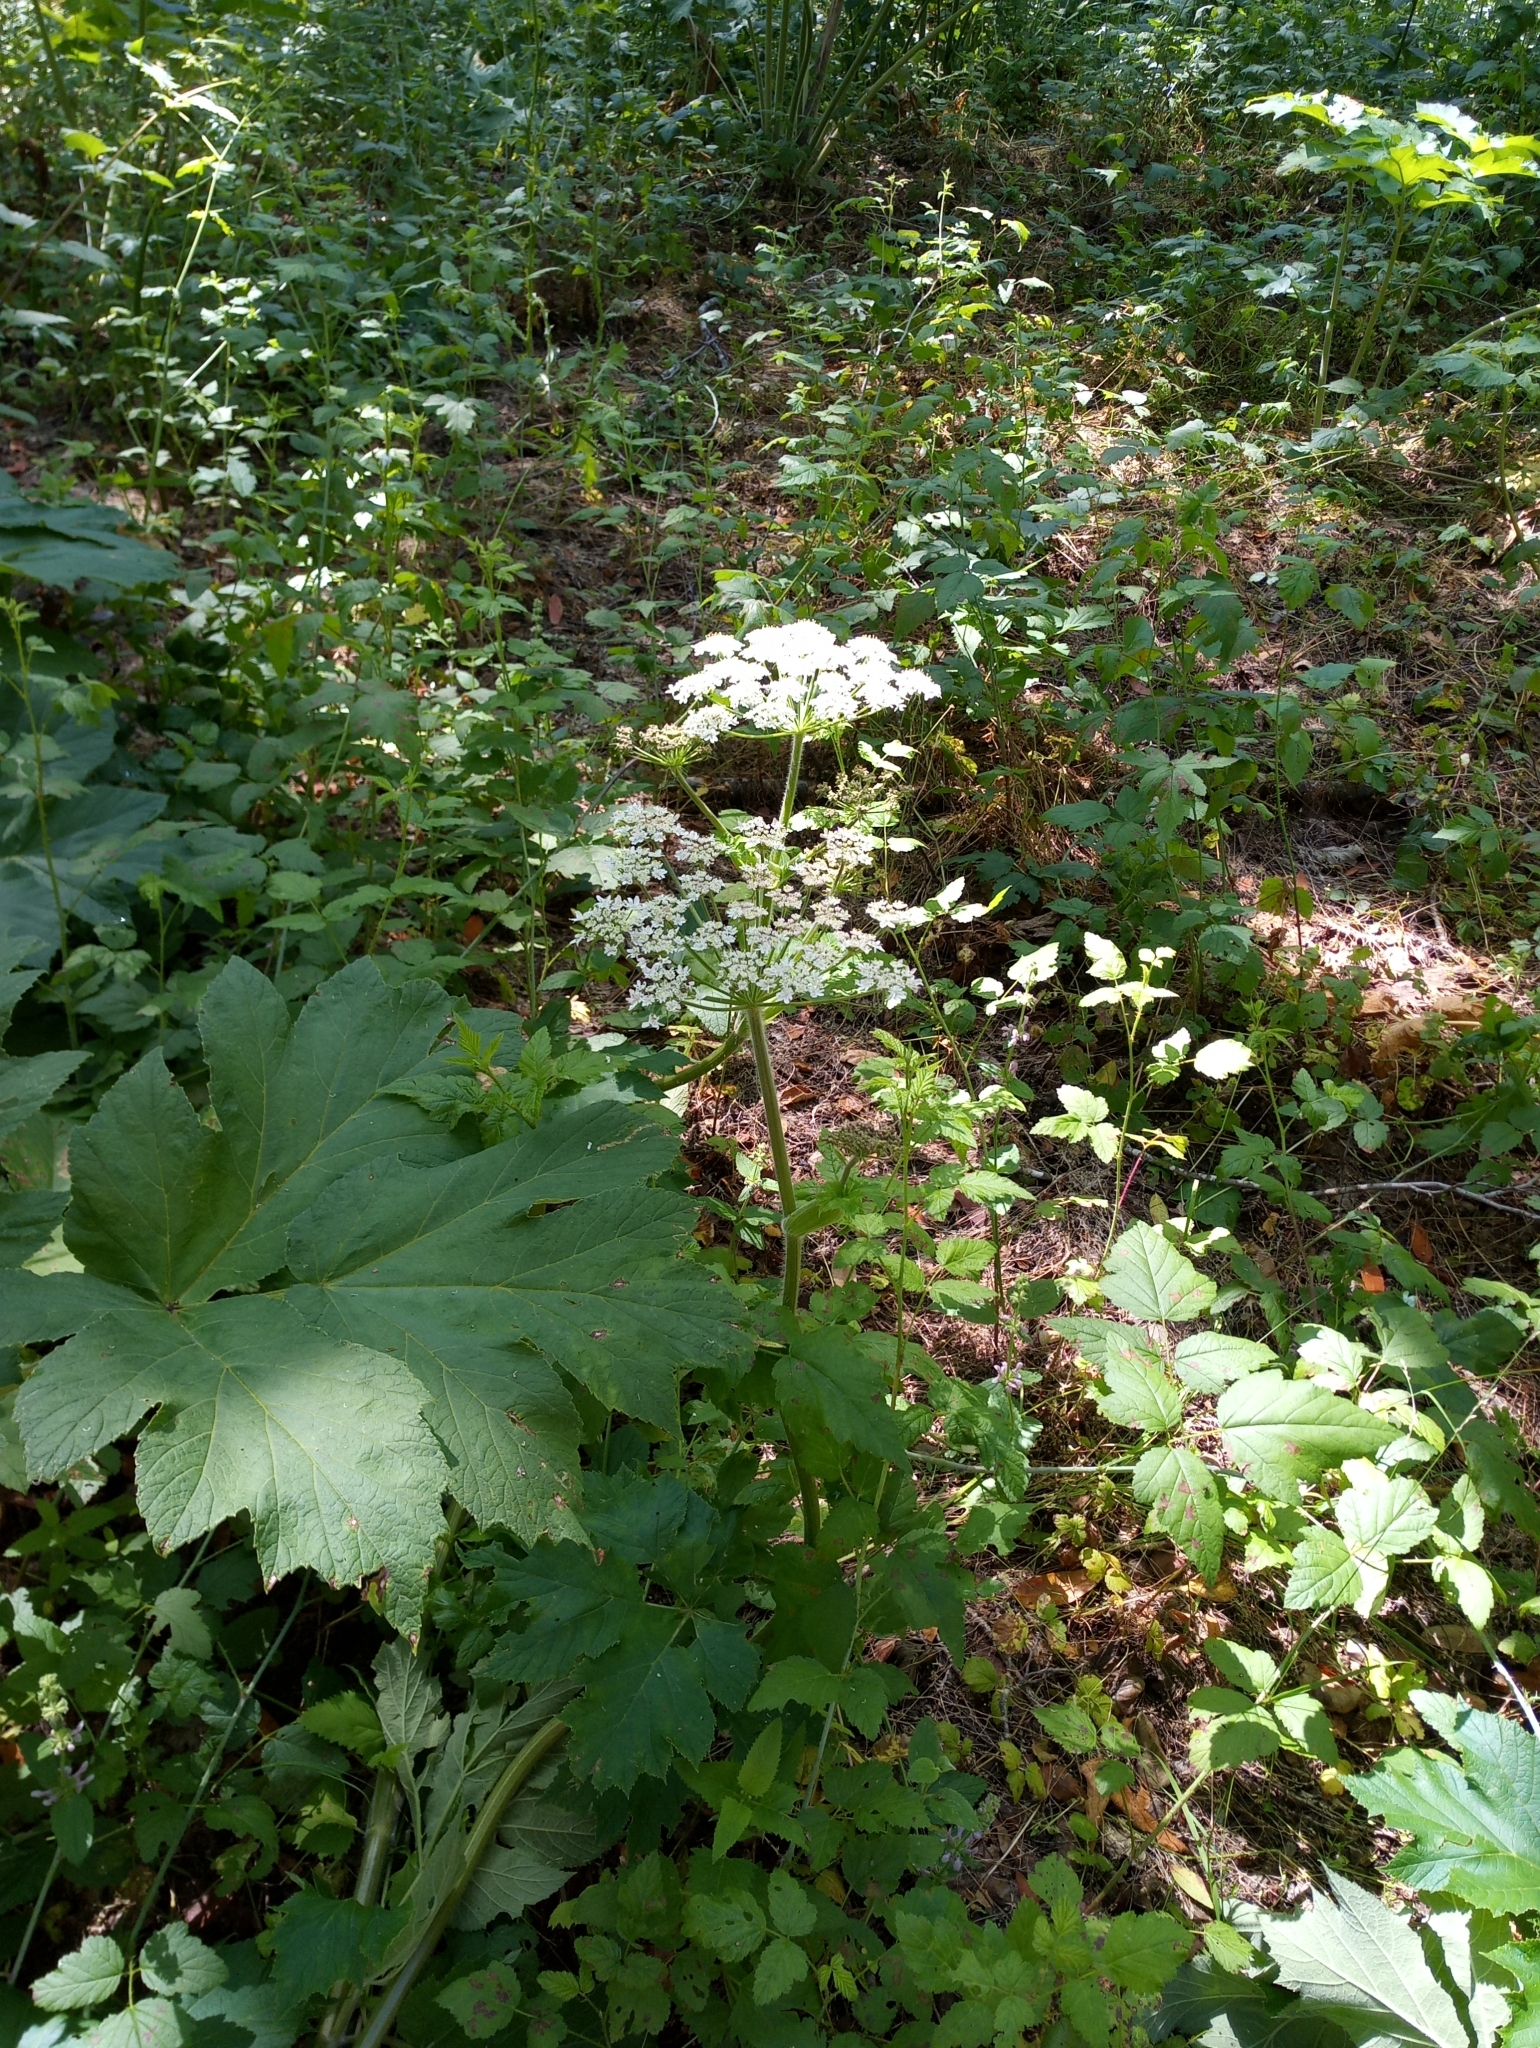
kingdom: Plantae
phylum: Tracheophyta
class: Magnoliopsida
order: Apiales
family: Apiaceae
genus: Heracleum
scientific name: Heracleum maximum
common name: American cow parsnip
